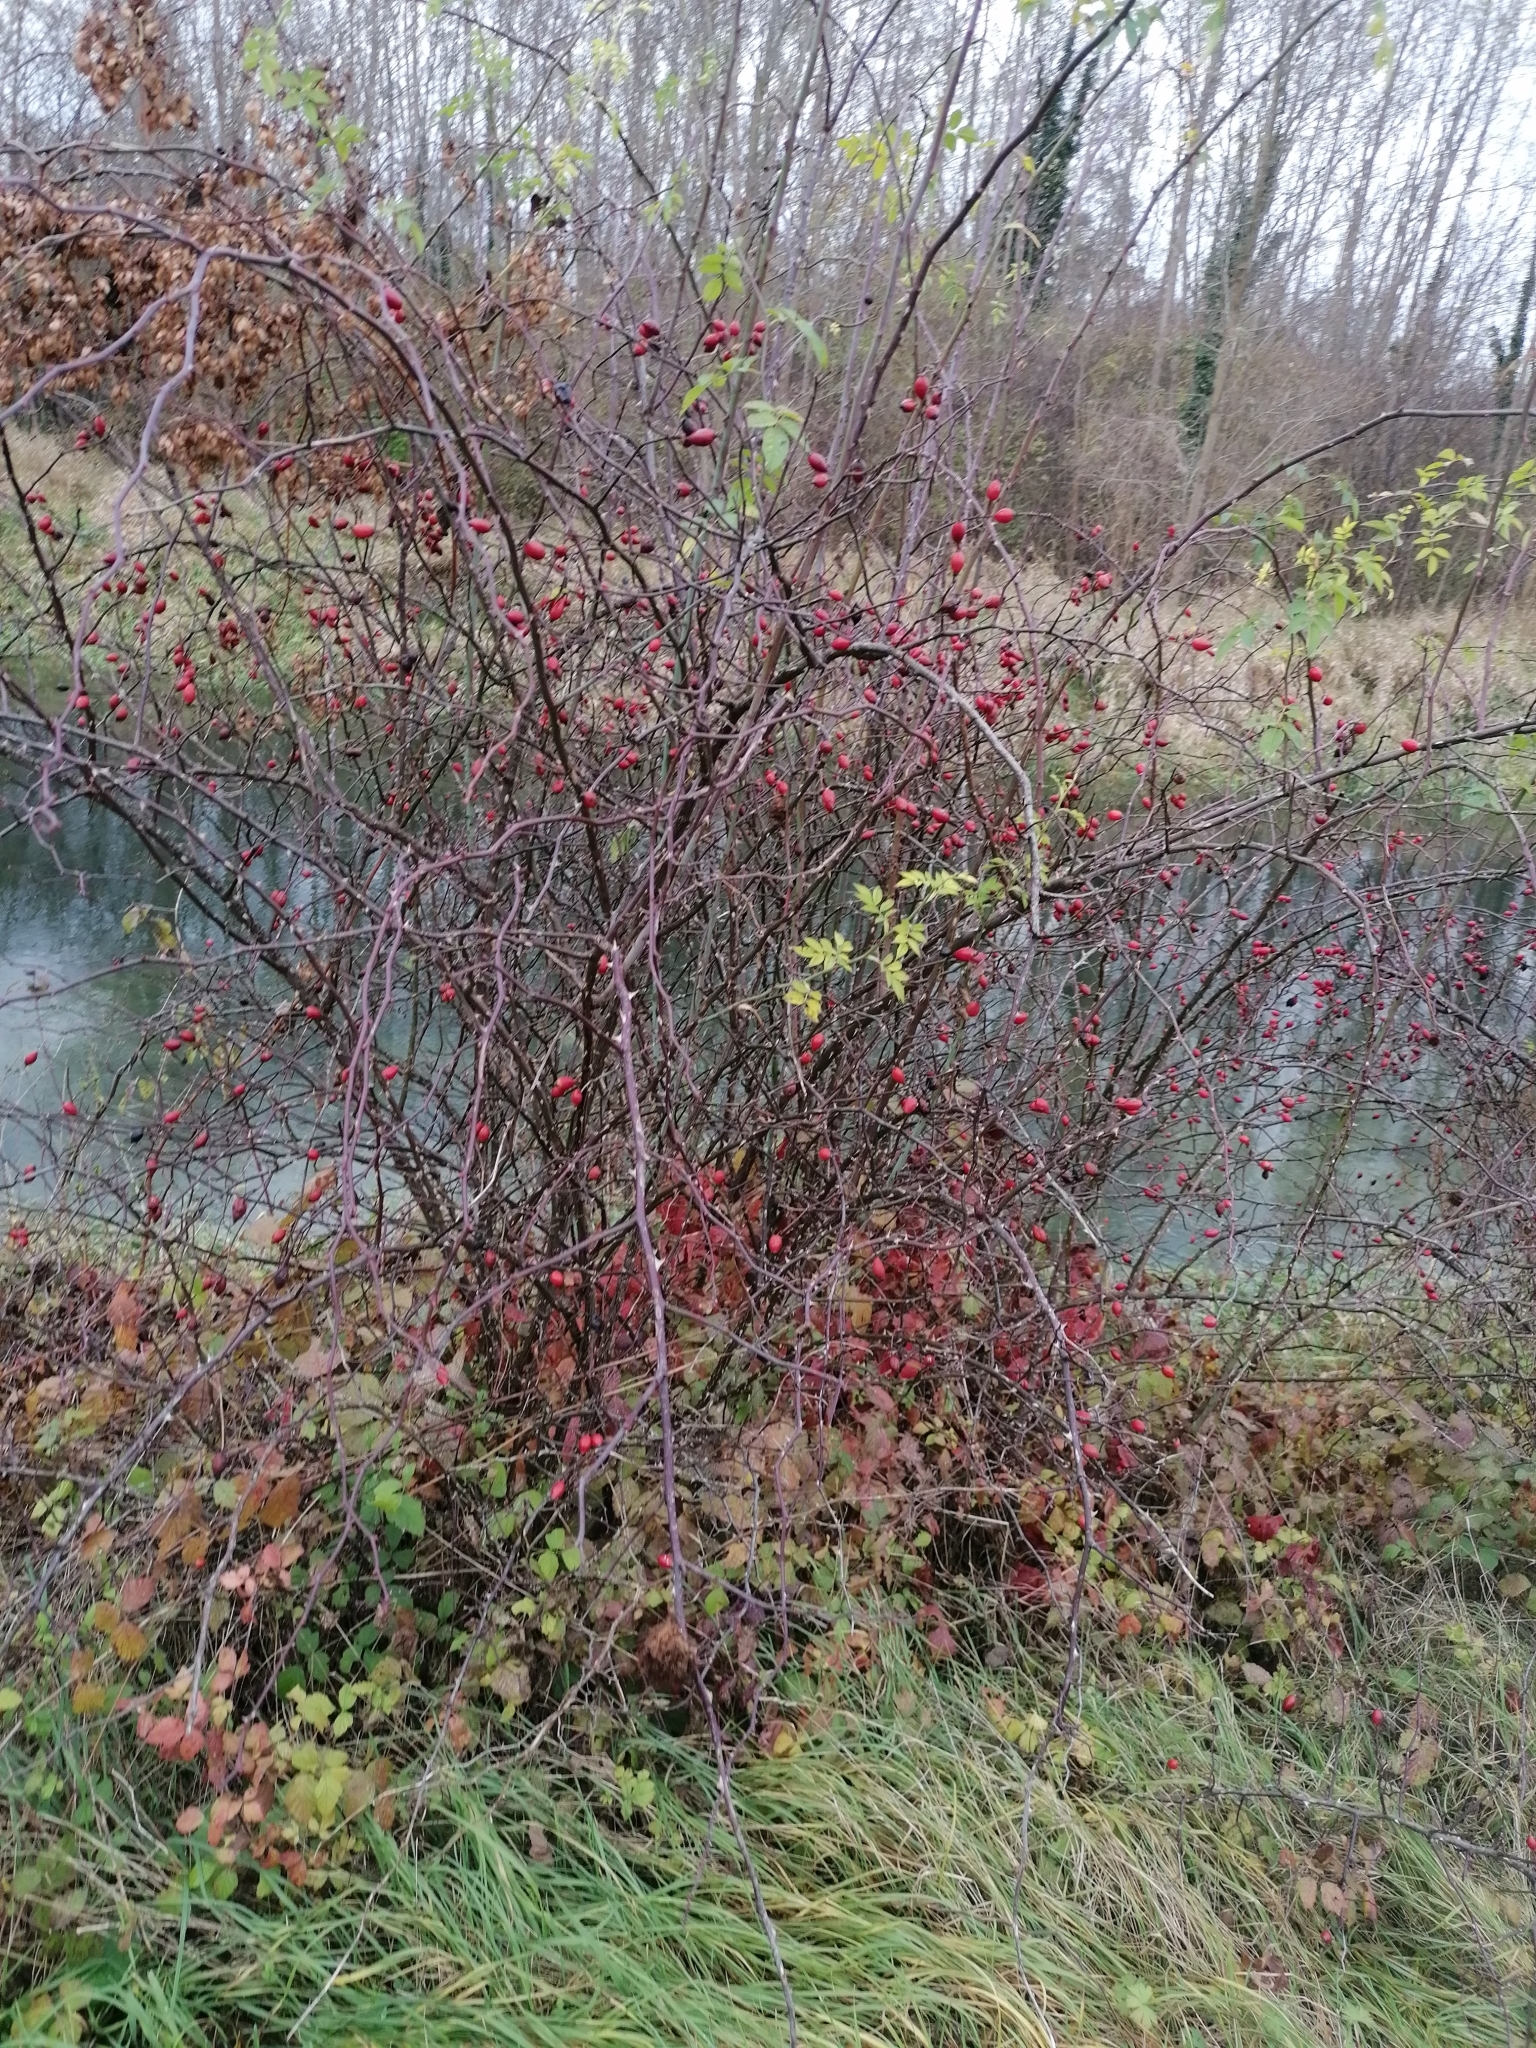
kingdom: Animalia
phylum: Arthropoda
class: Insecta
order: Hymenoptera
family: Cynipidae
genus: Diplolepis
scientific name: Diplolepis rosae
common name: Bedeguar gall
